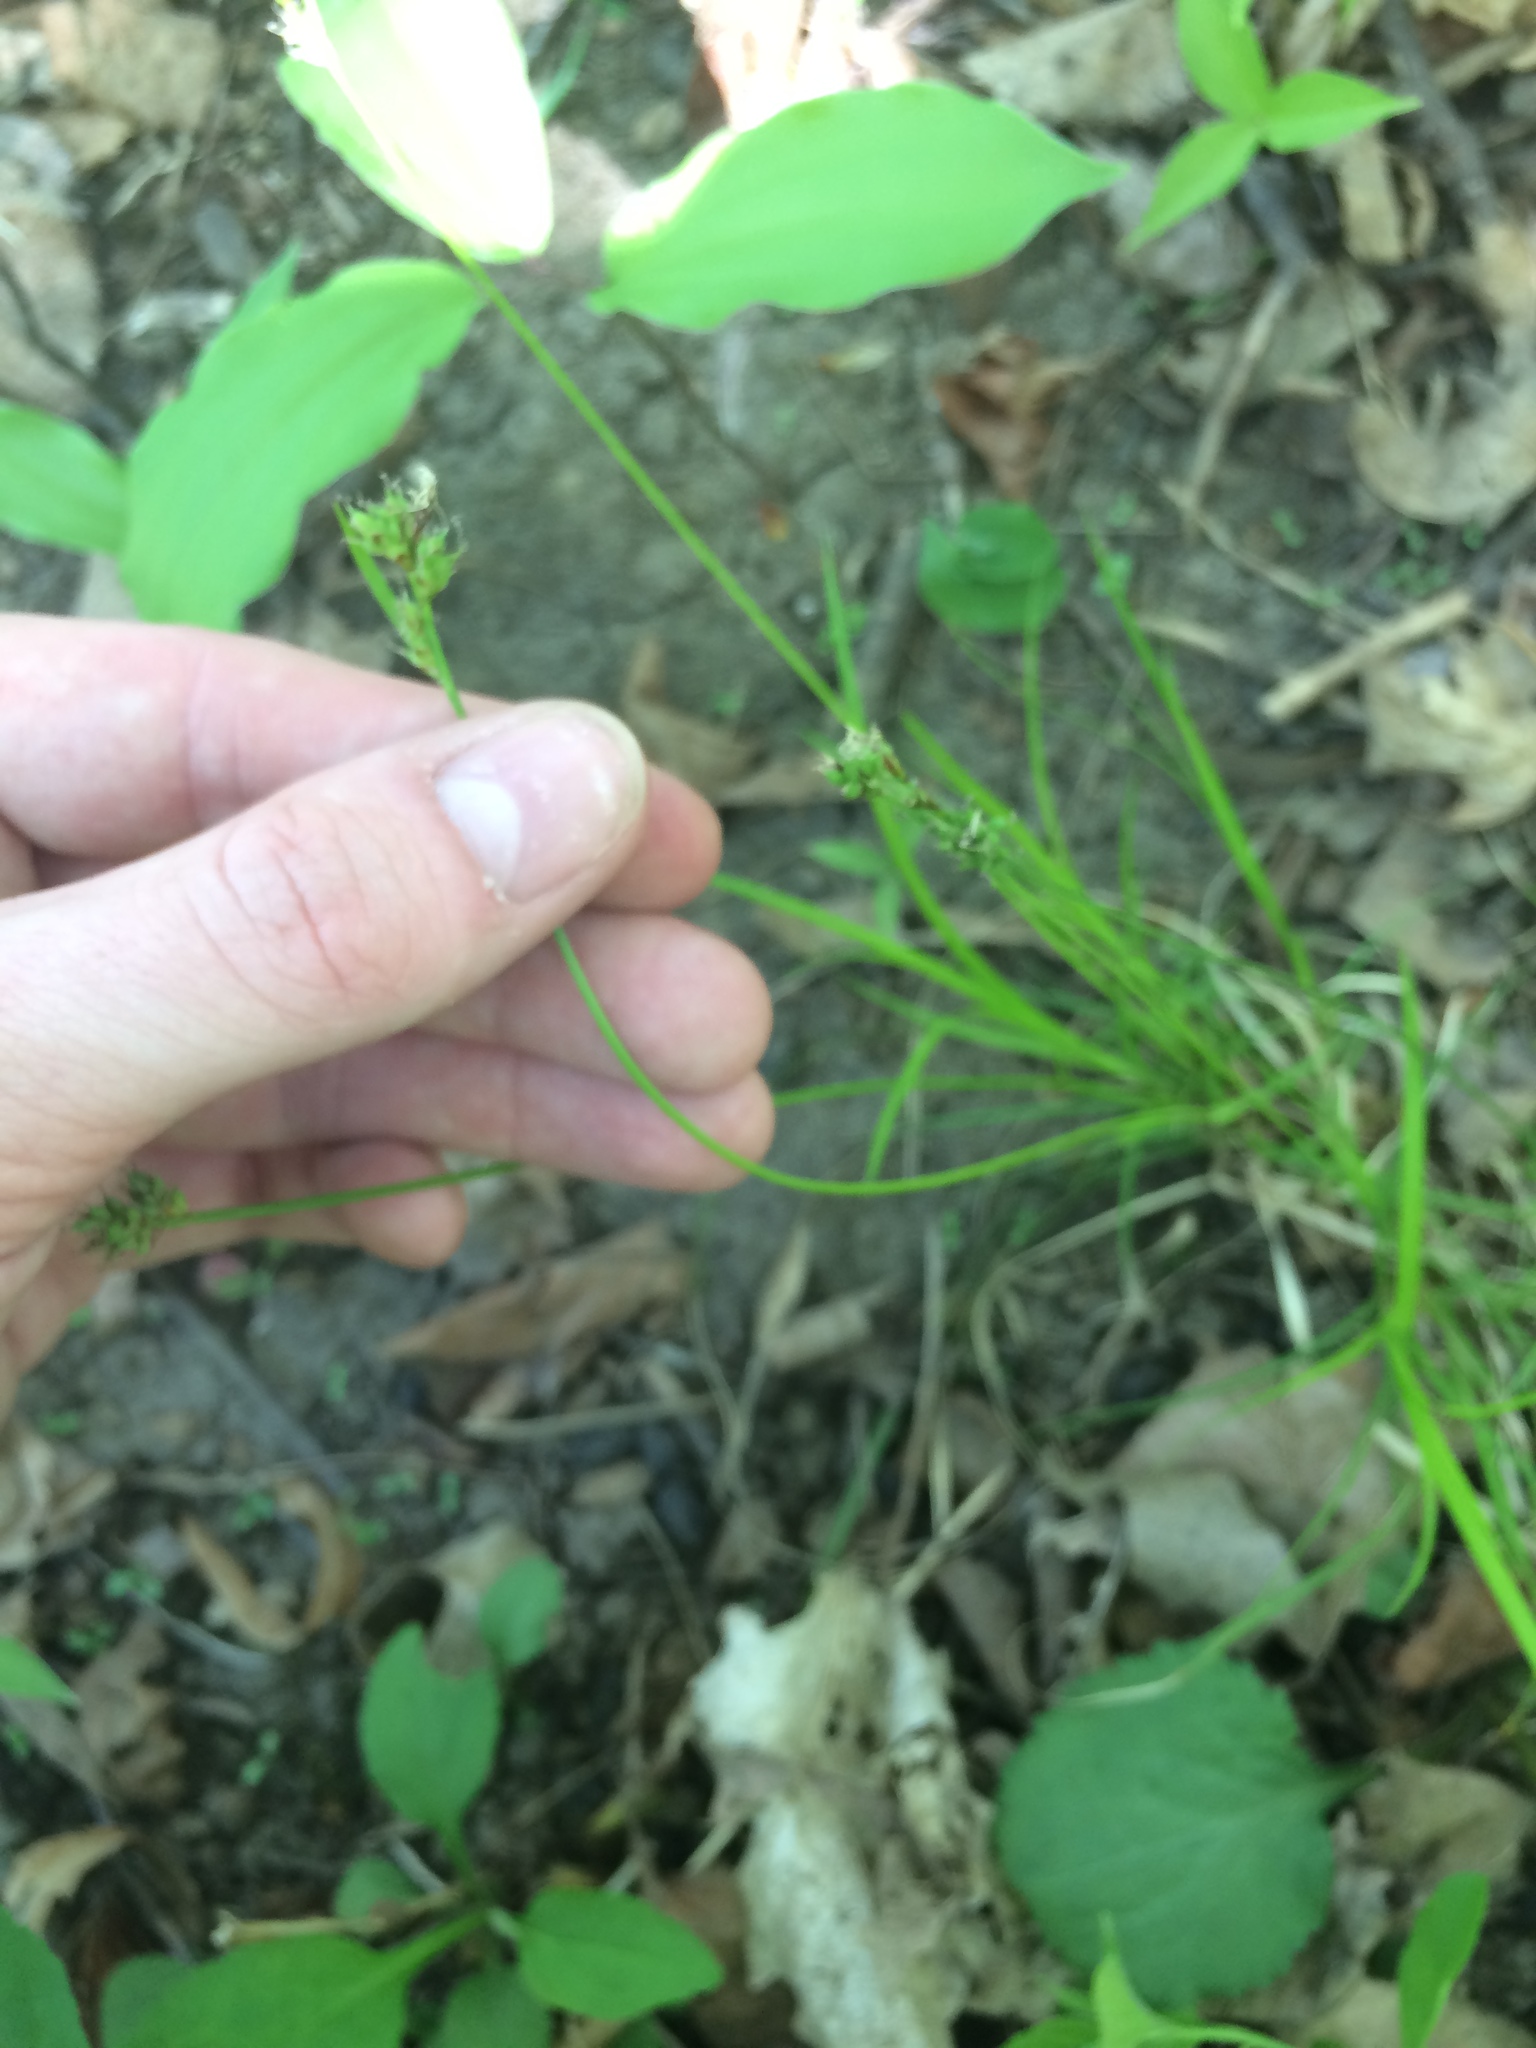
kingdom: Plantae
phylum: Tracheophyta
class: Liliopsida
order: Poales
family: Cyperaceae
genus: Carex
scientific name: Carex peckii
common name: Peck's oak sedge
